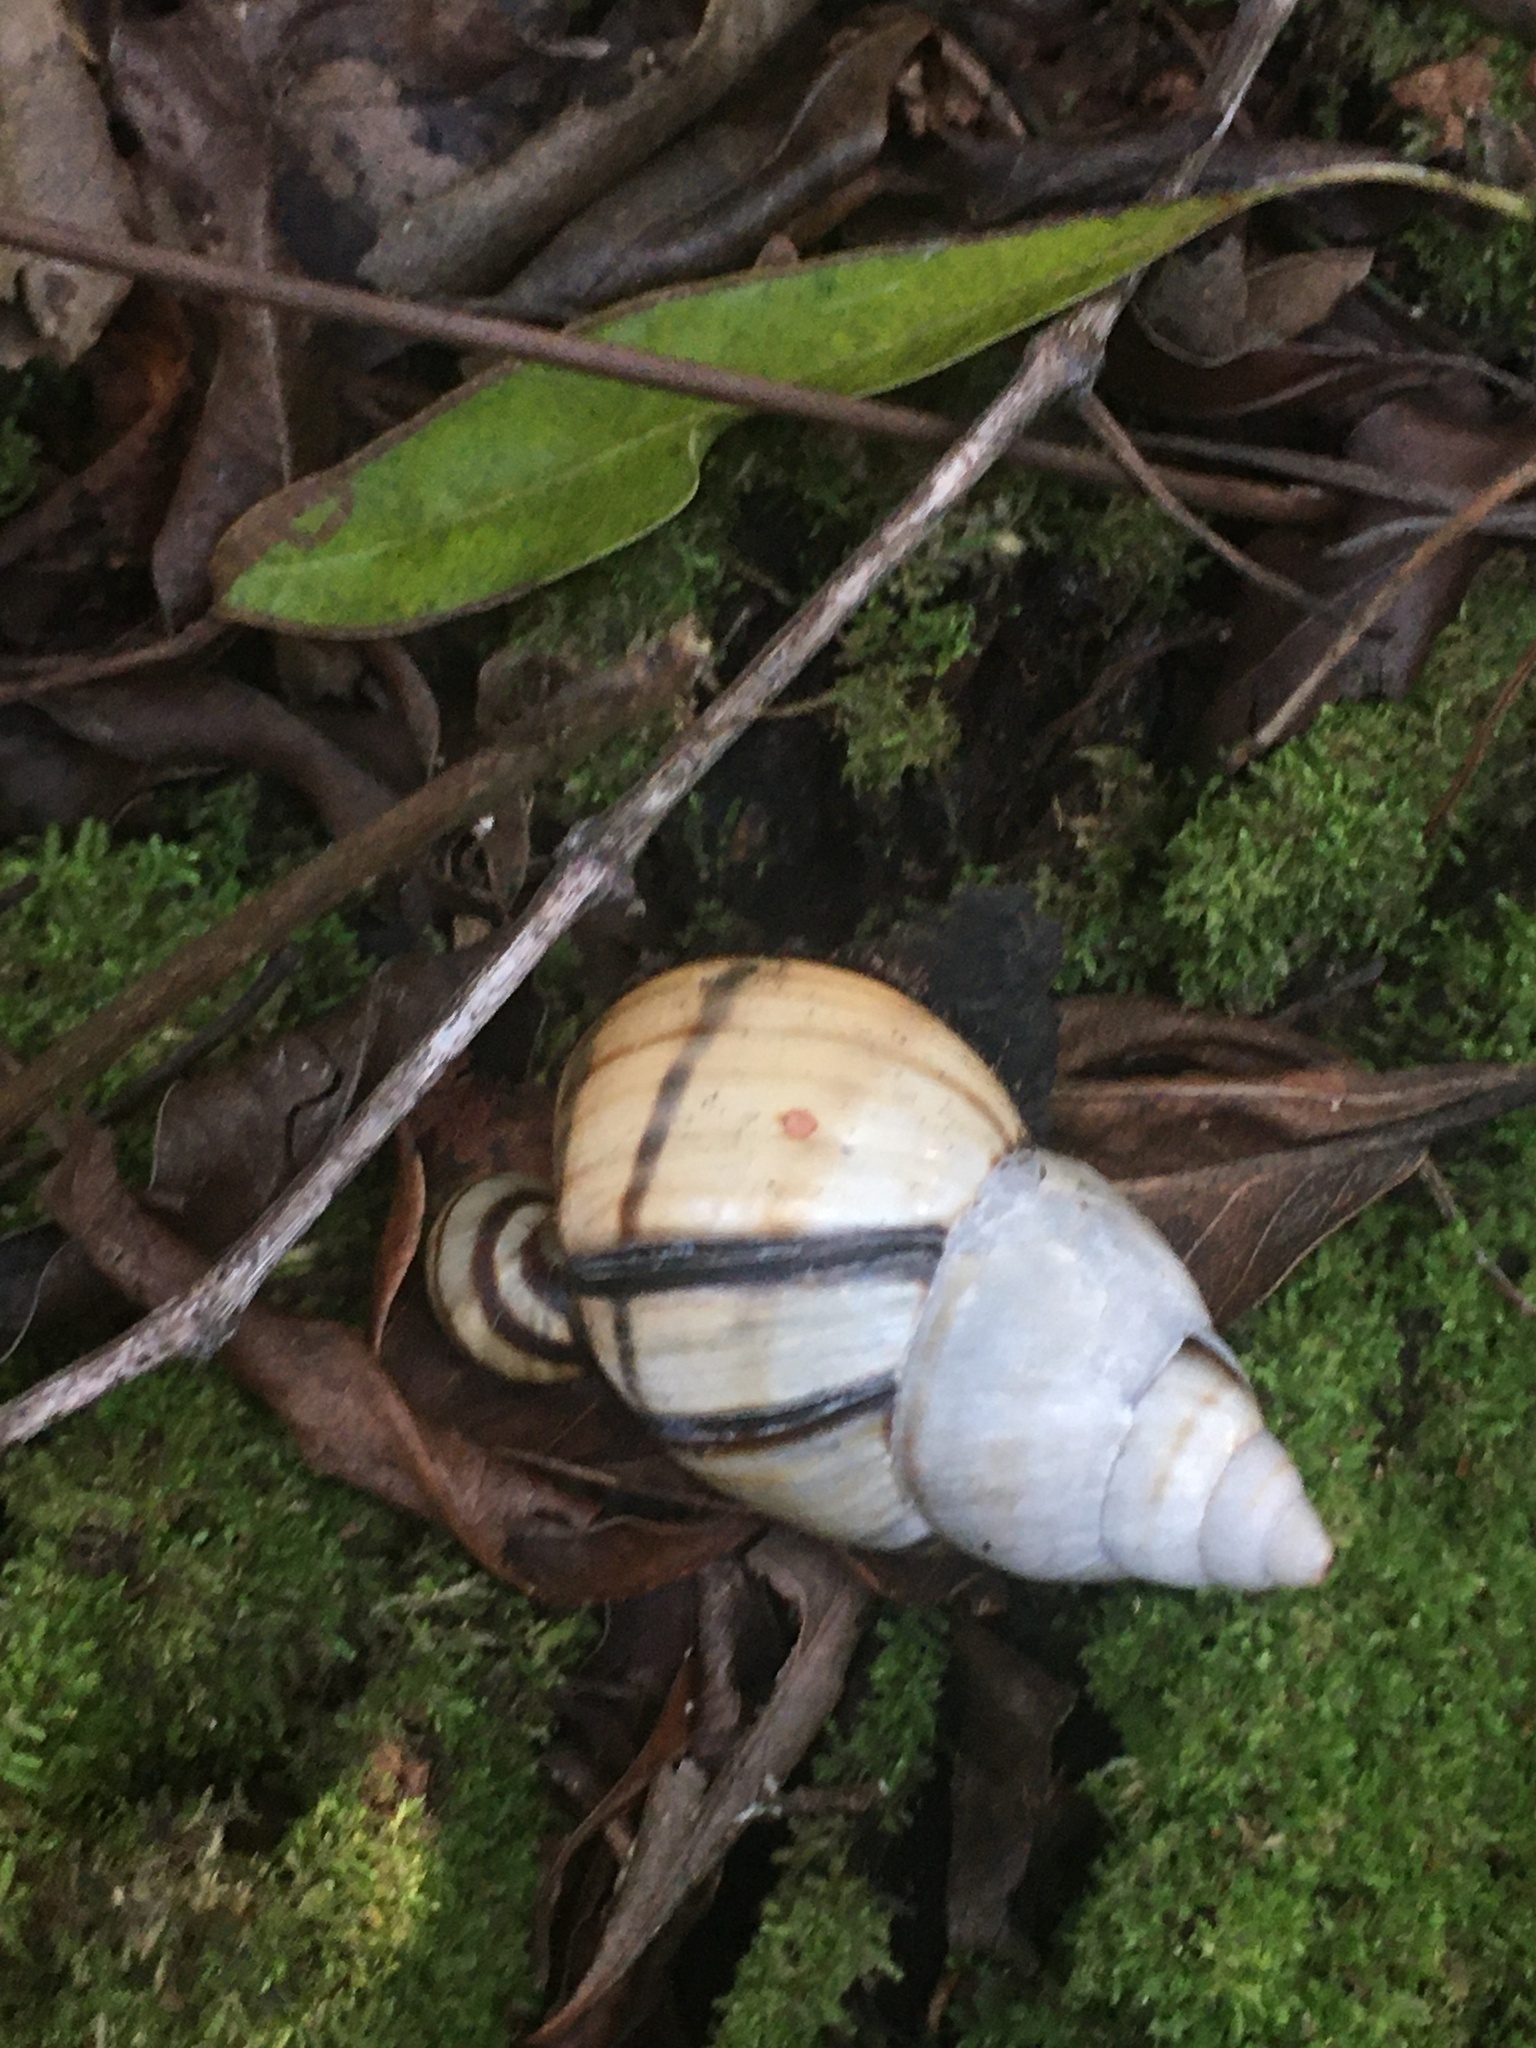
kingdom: Animalia
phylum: Mollusca
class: Gastropoda
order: Stylommatophora
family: Orthalicidae
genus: Orthalicus
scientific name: Orthalicus floridensis
